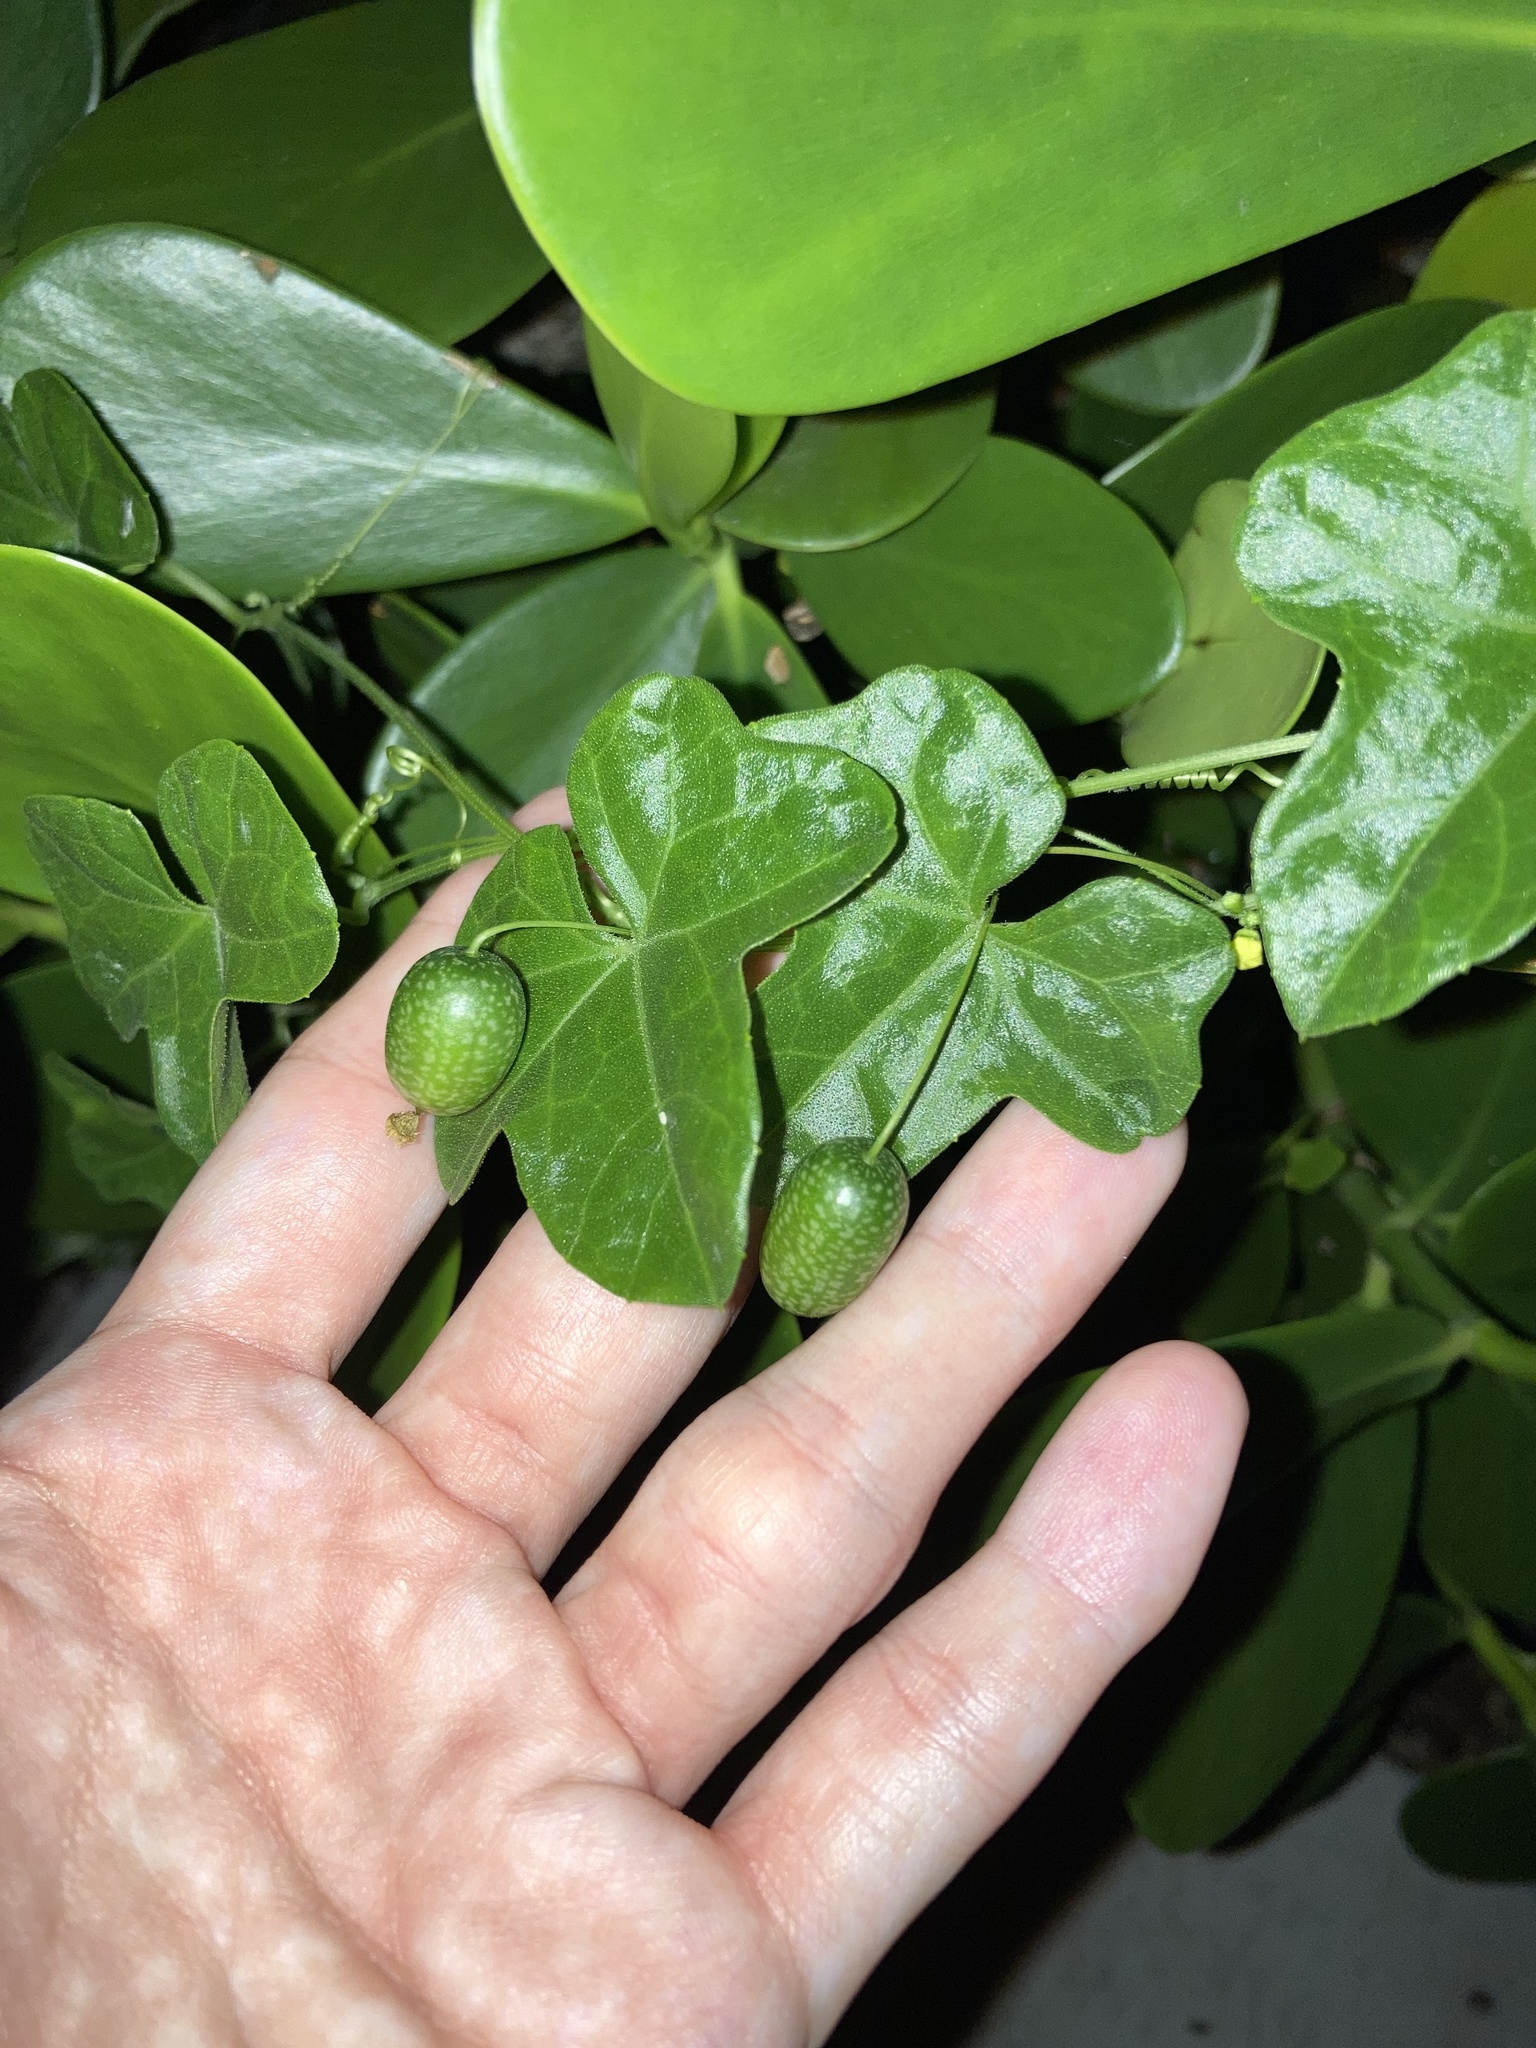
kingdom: Plantae
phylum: Tracheophyta
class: Magnoliopsida
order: Cucurbitales
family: Cucurbitaceae
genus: Melothria
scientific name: Melothria pendula
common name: Creeping-cucumber
